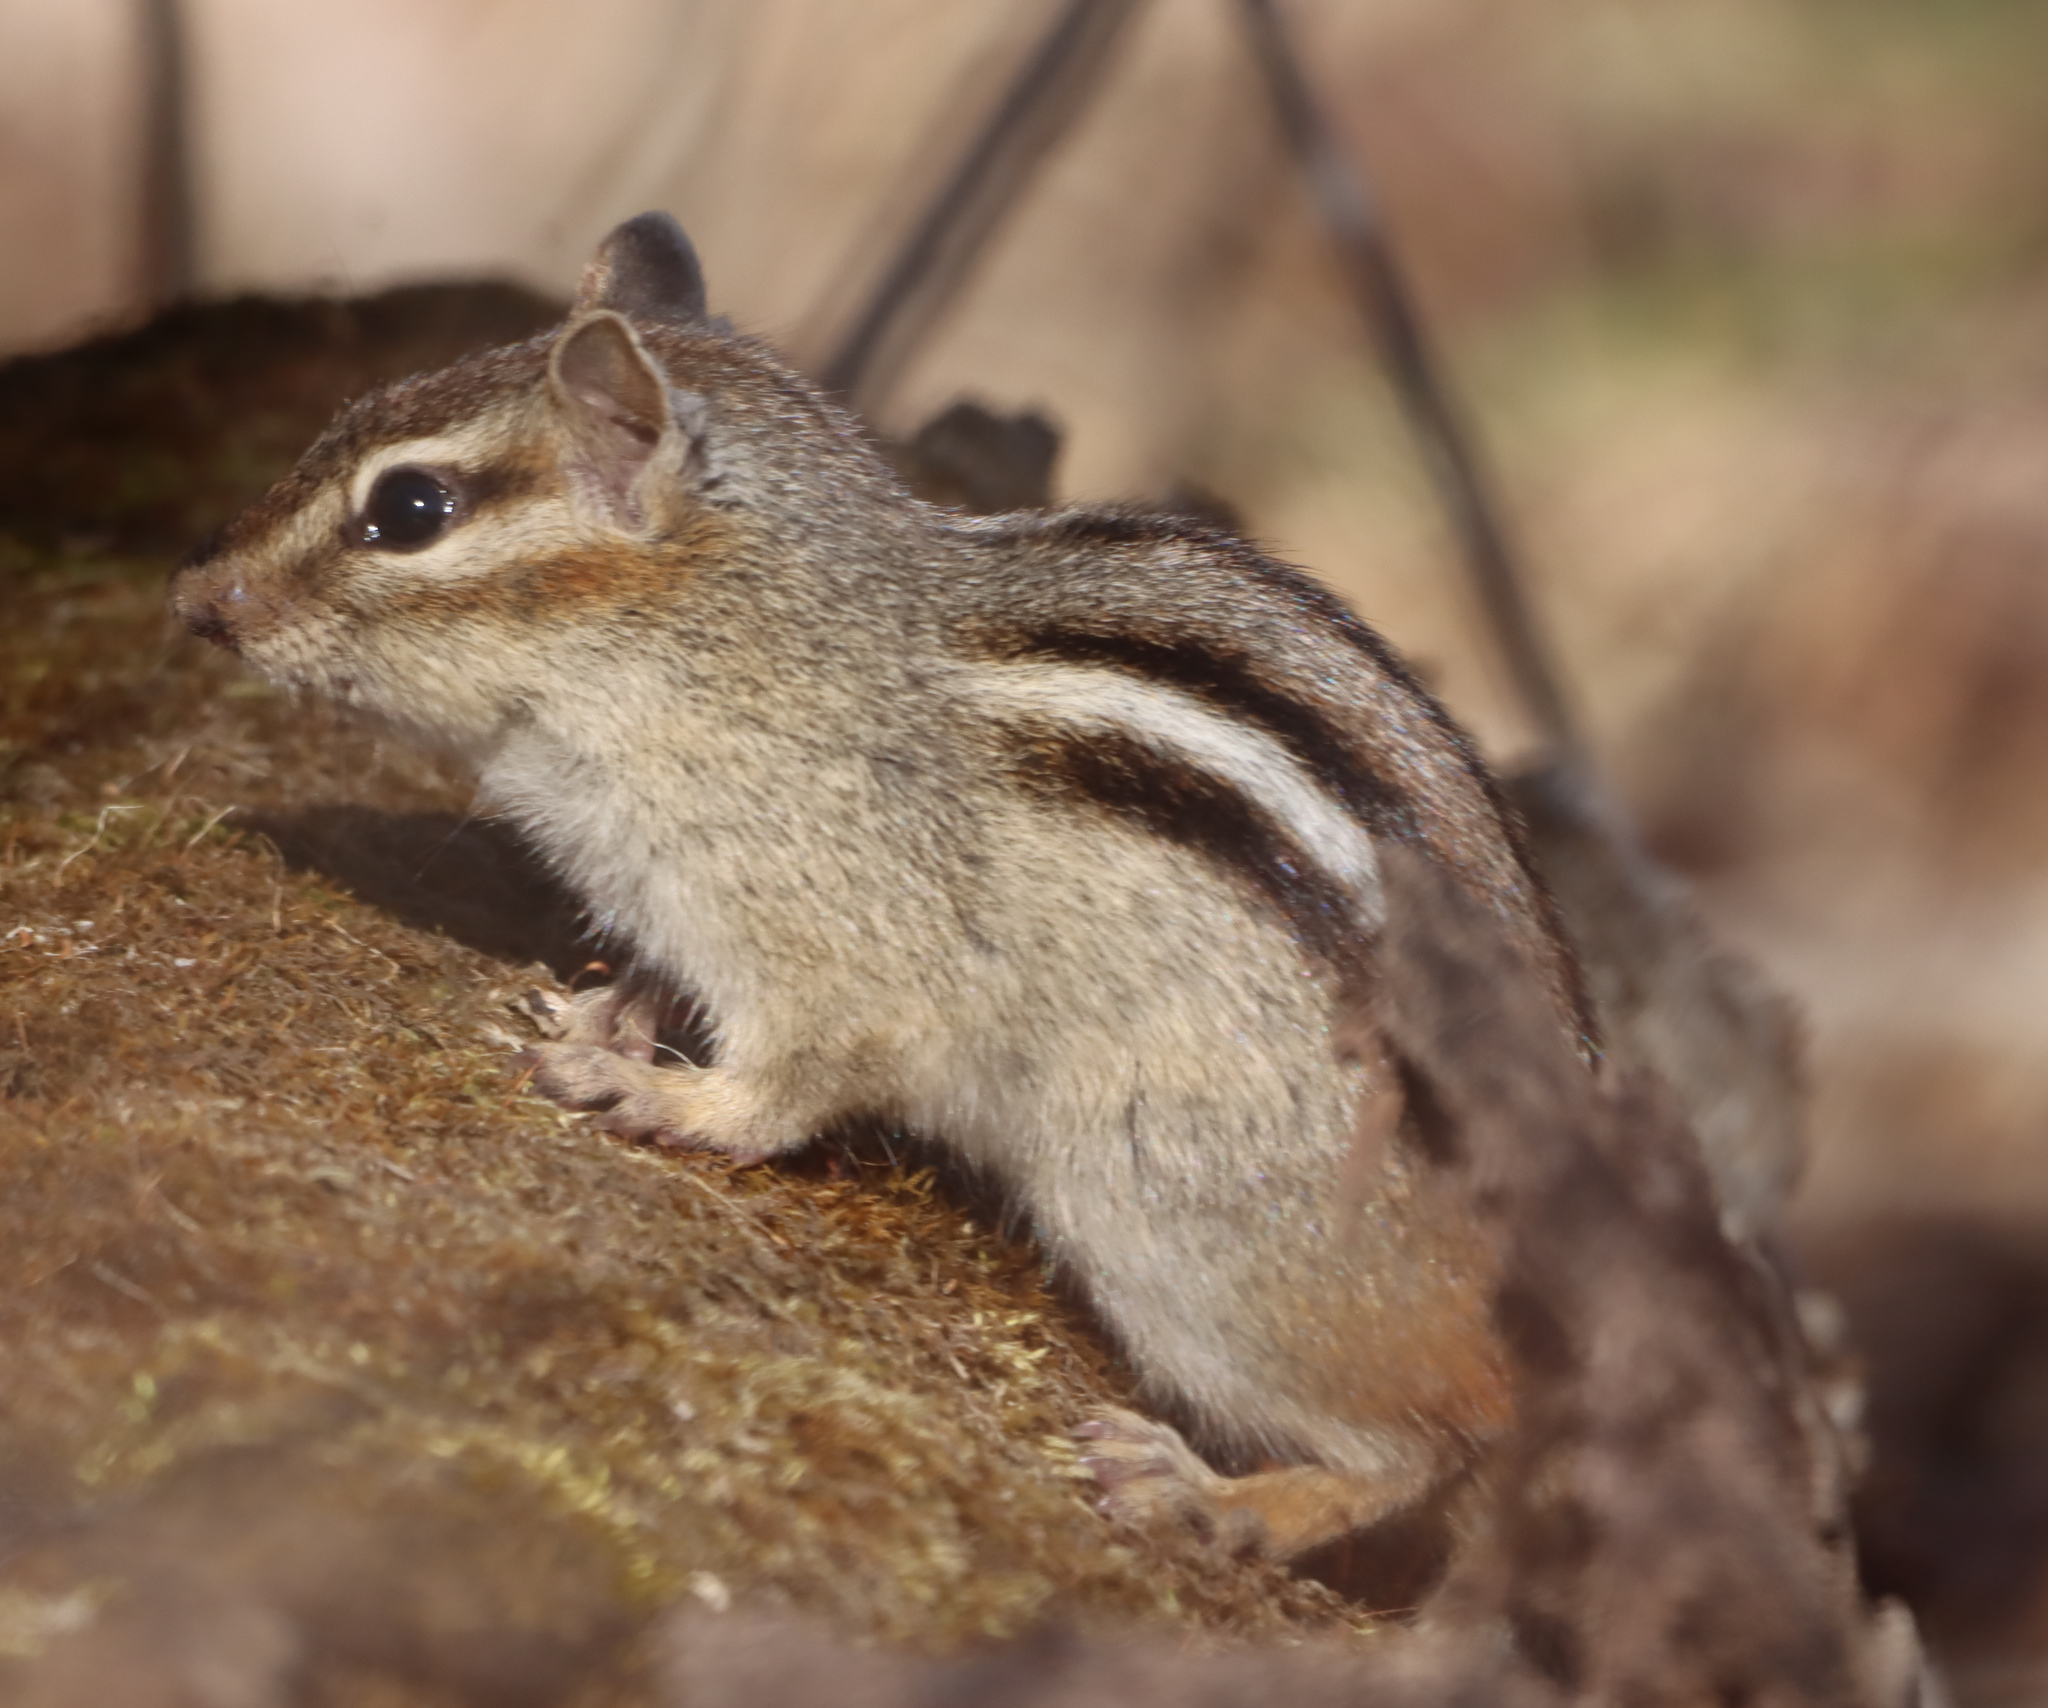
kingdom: Animalia
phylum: Chordata
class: Mammalia
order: Rodentia
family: Sciuridae
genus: Tamias
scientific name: Tamias striatus
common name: Eastern chipmunk
